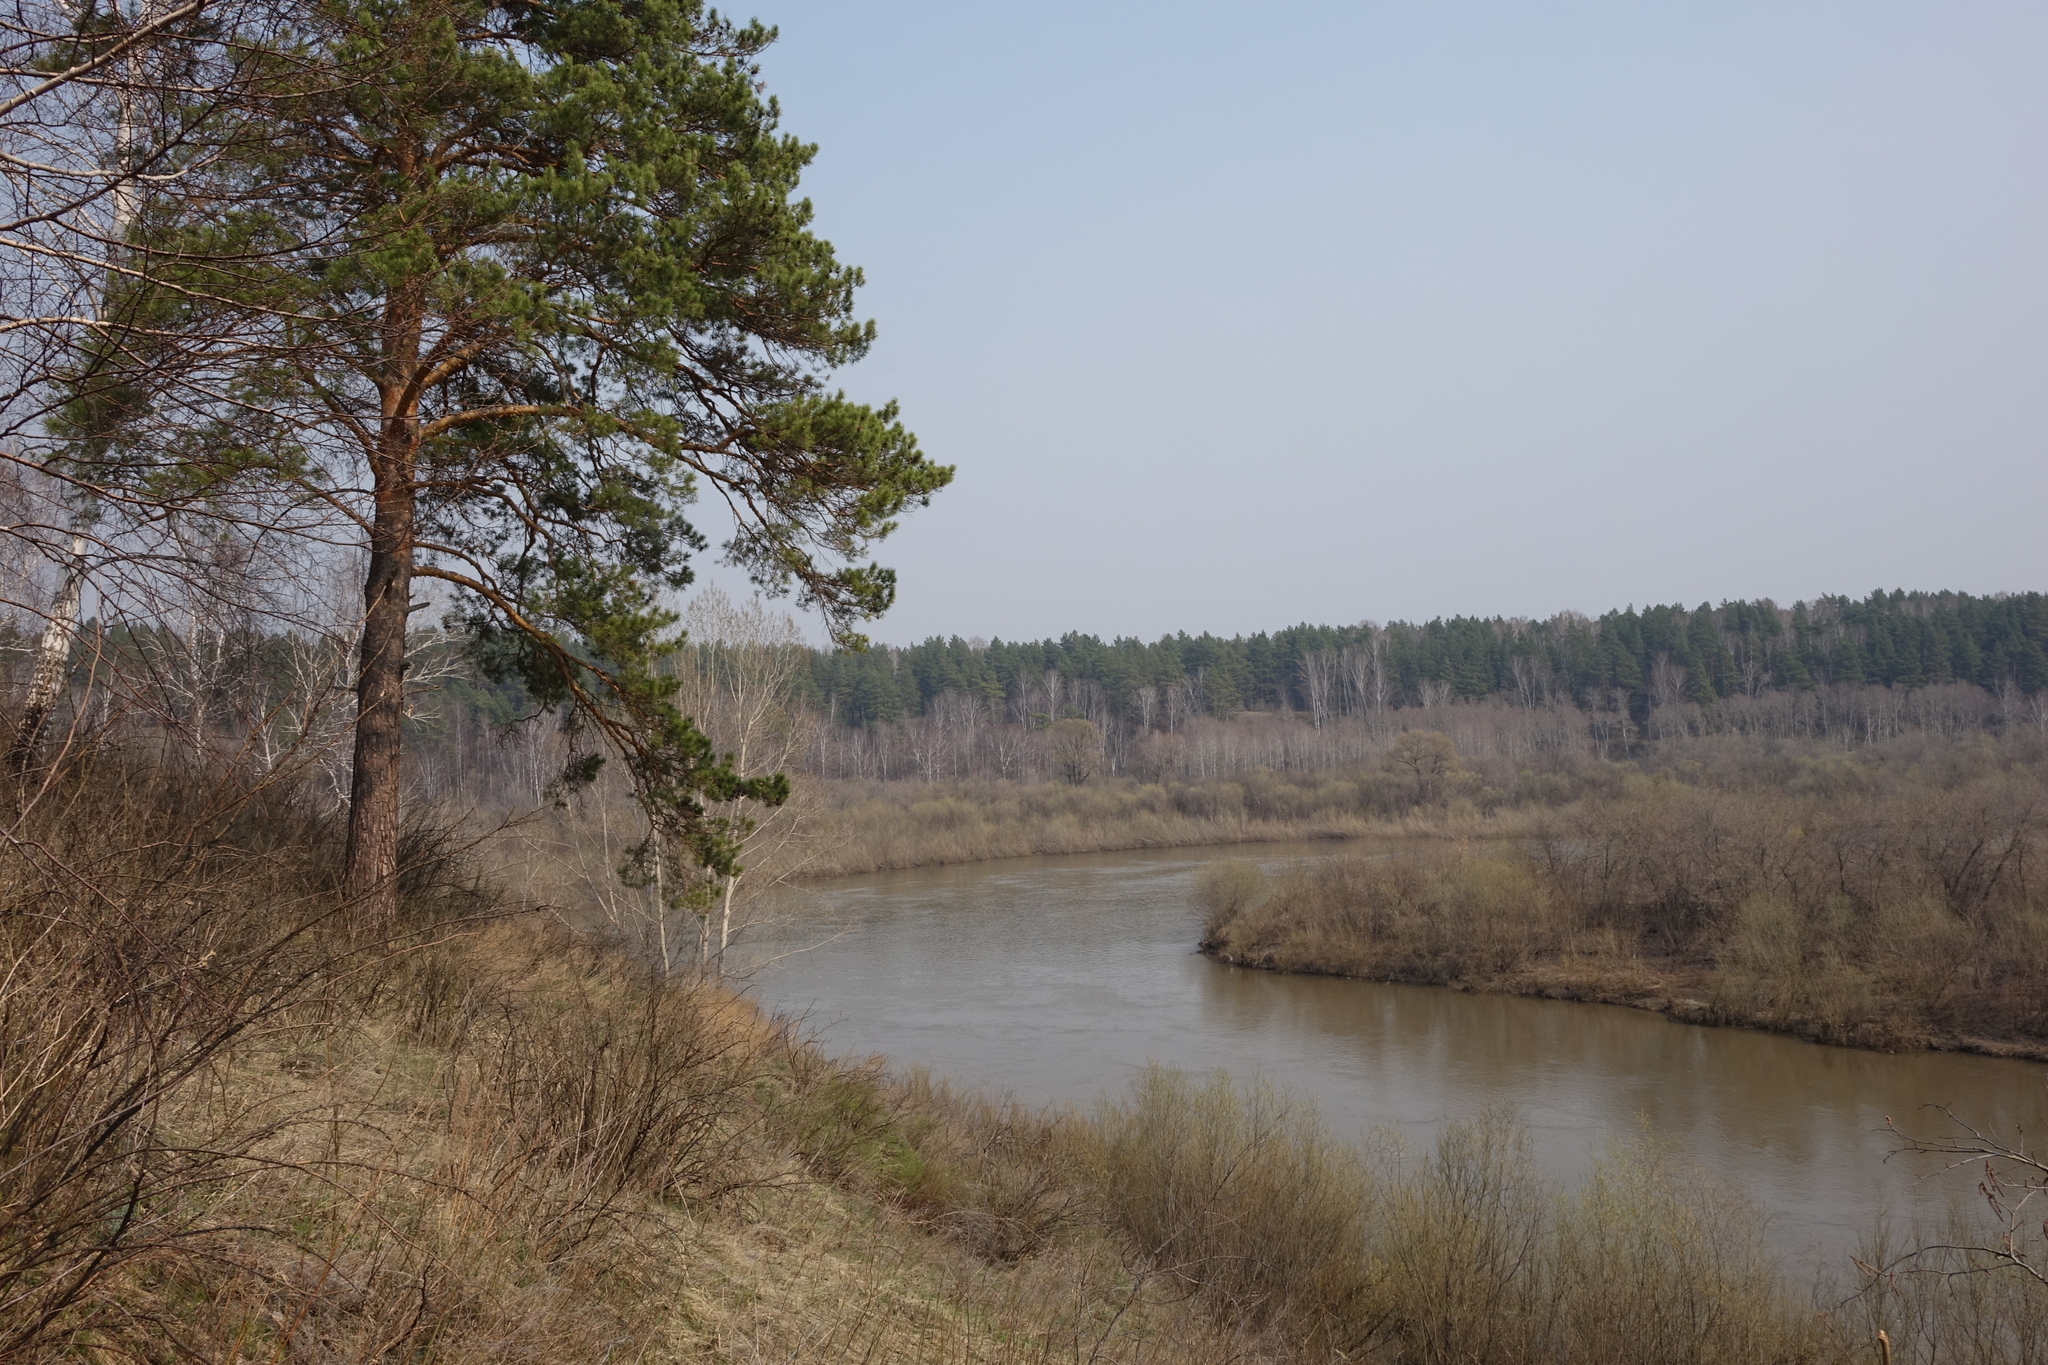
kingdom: Plantae
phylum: Tracheophyta
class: Pinopsida
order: Pinales
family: Pinaceae
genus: Pinus
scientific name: Pinus sylvestris
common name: Scots pine
